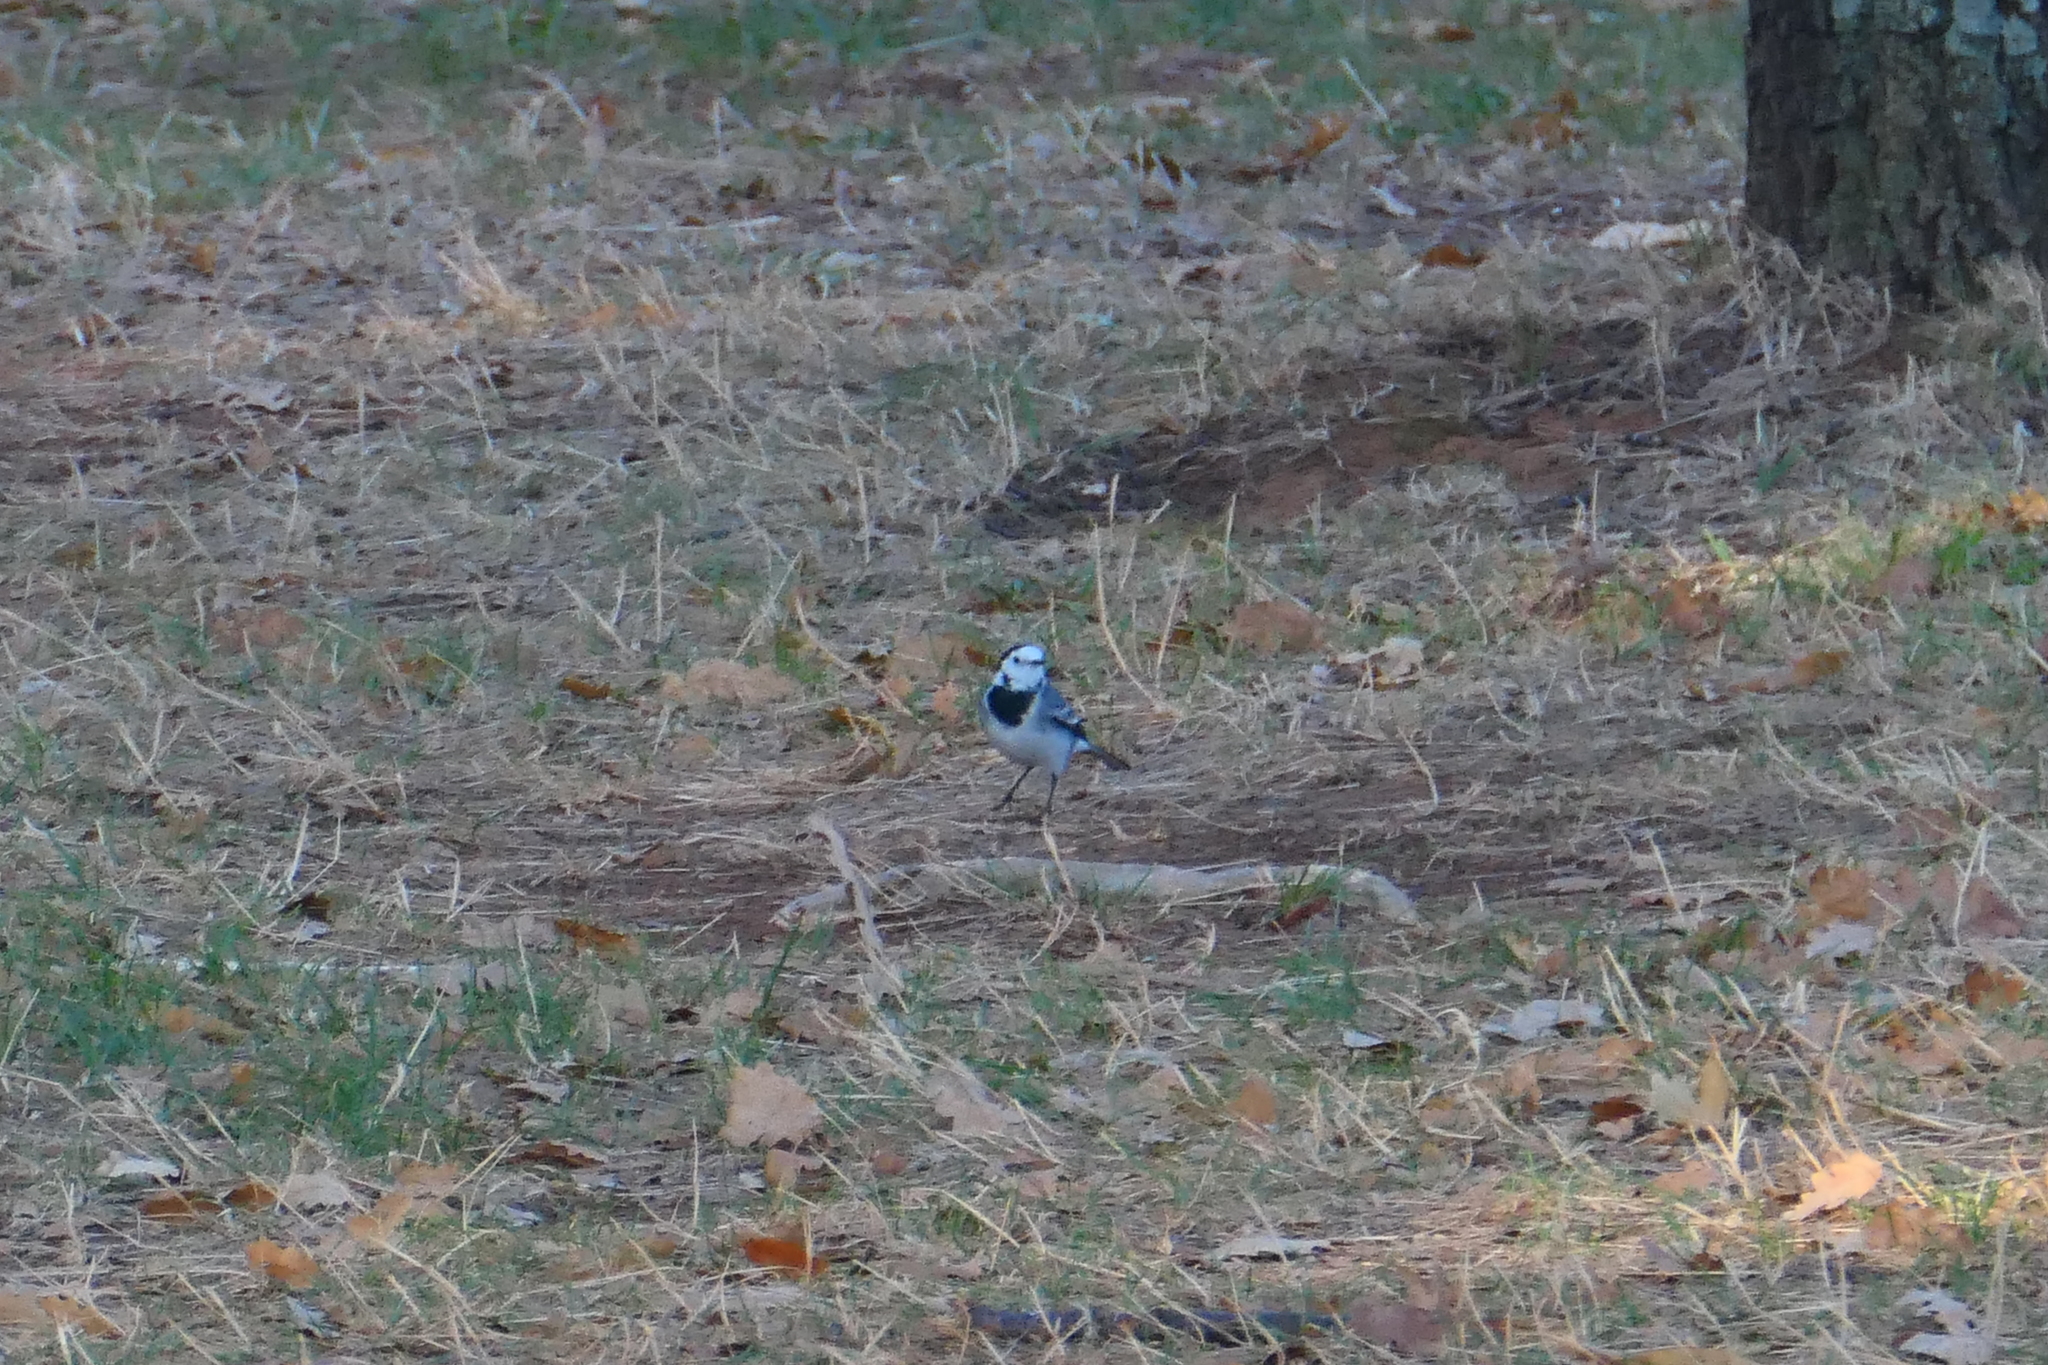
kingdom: Animalia
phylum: Chordata
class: Aves
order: Passeriformes
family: Motacillidae
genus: Motacilla
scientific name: Motacilla alba
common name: White wagtail
